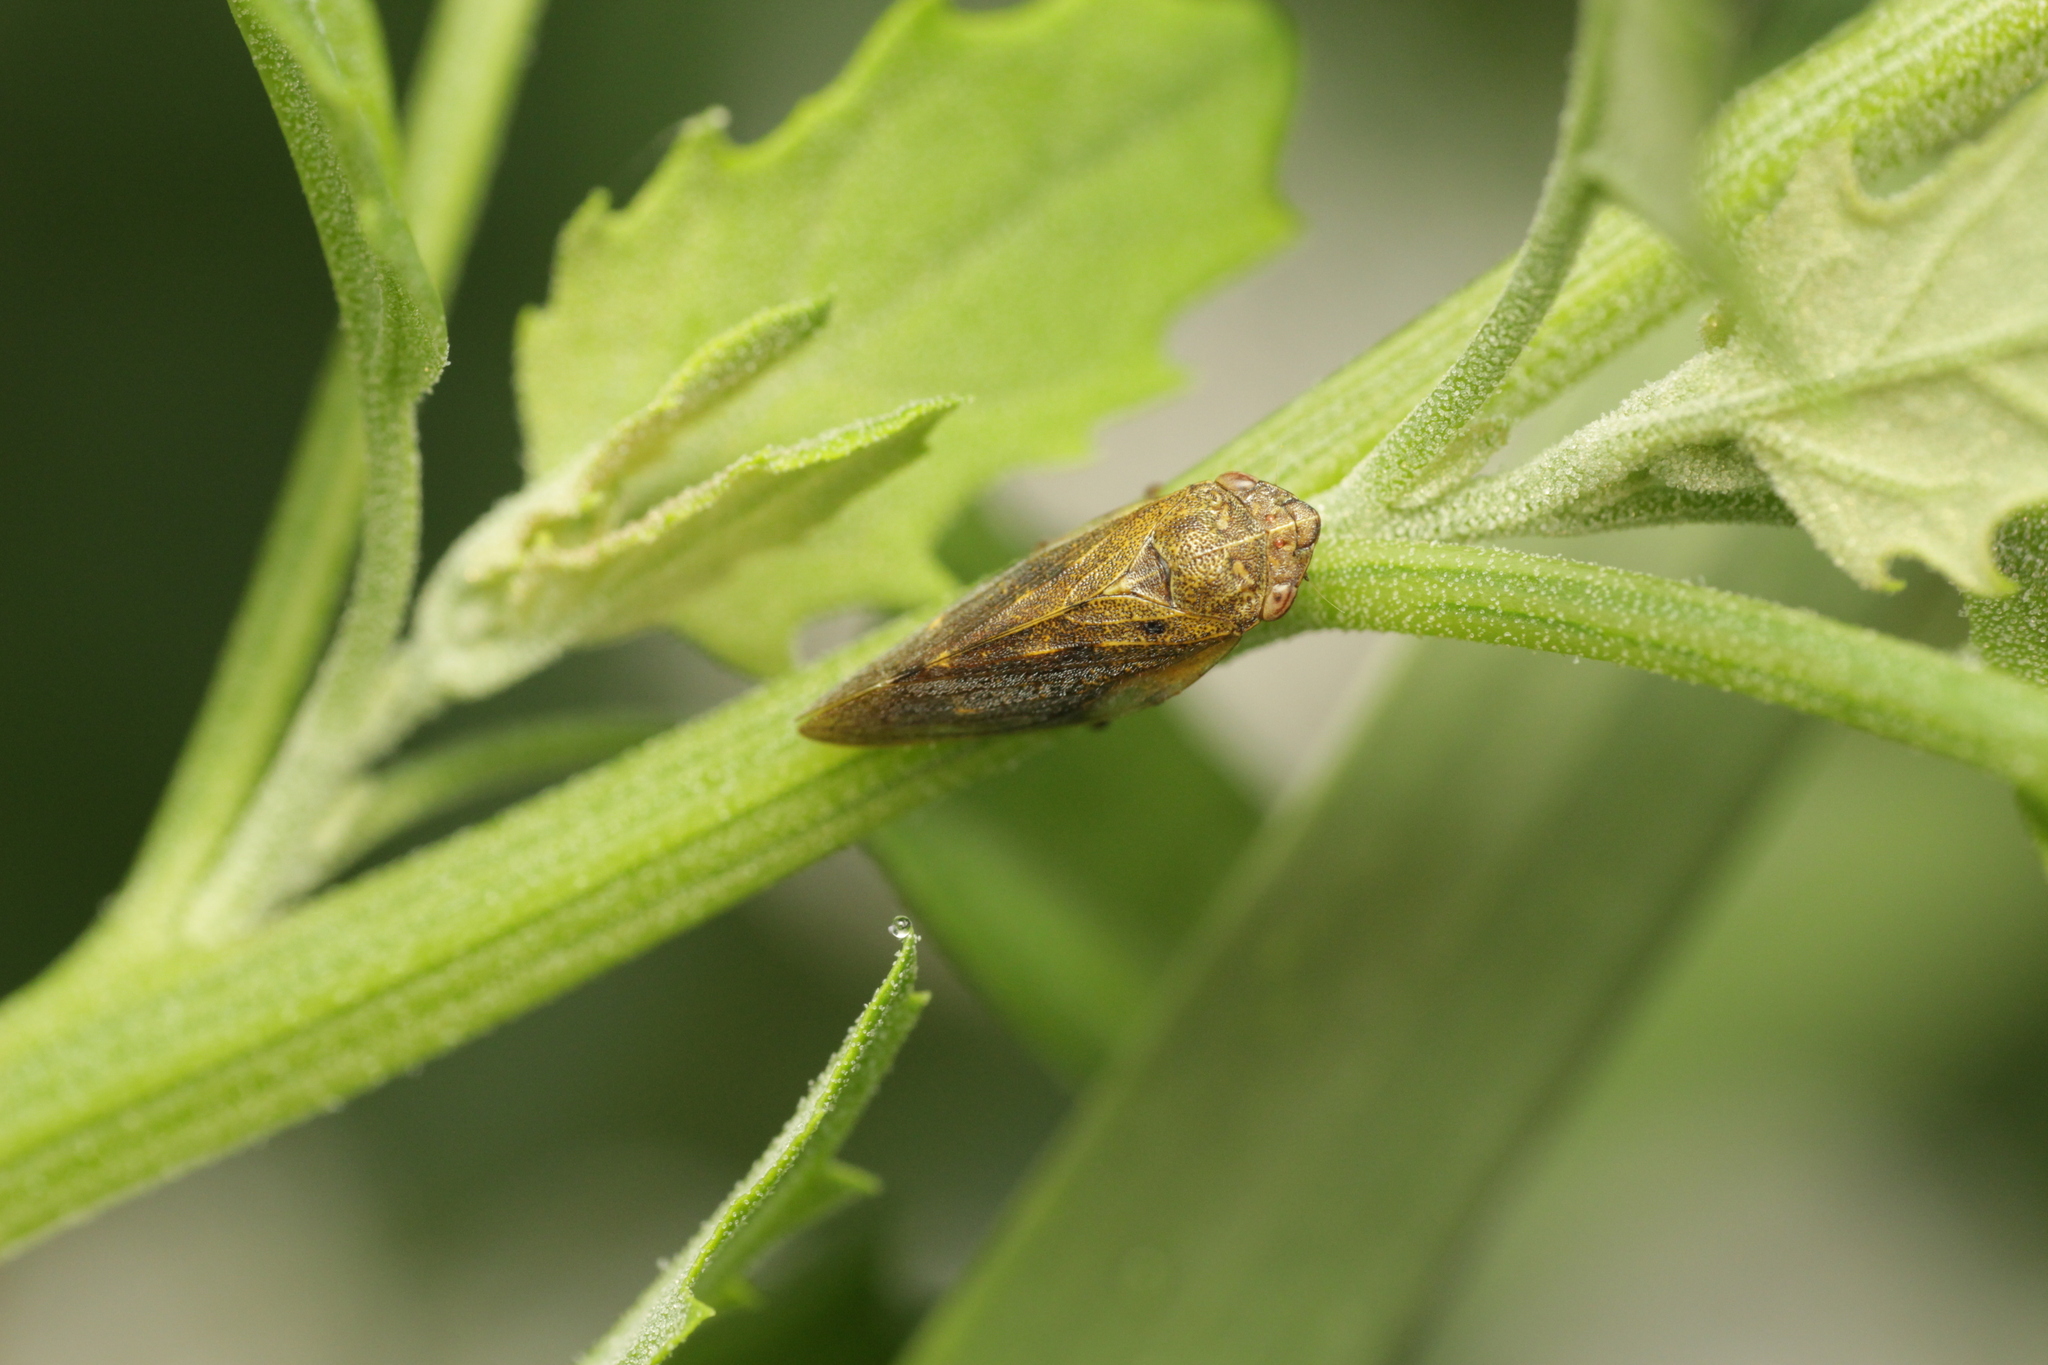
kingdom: Animalia
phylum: Arthropoda
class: Insecta
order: Hemiptera
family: Aphrophoridae
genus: Omalophora
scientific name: Omalophora pectoralis
